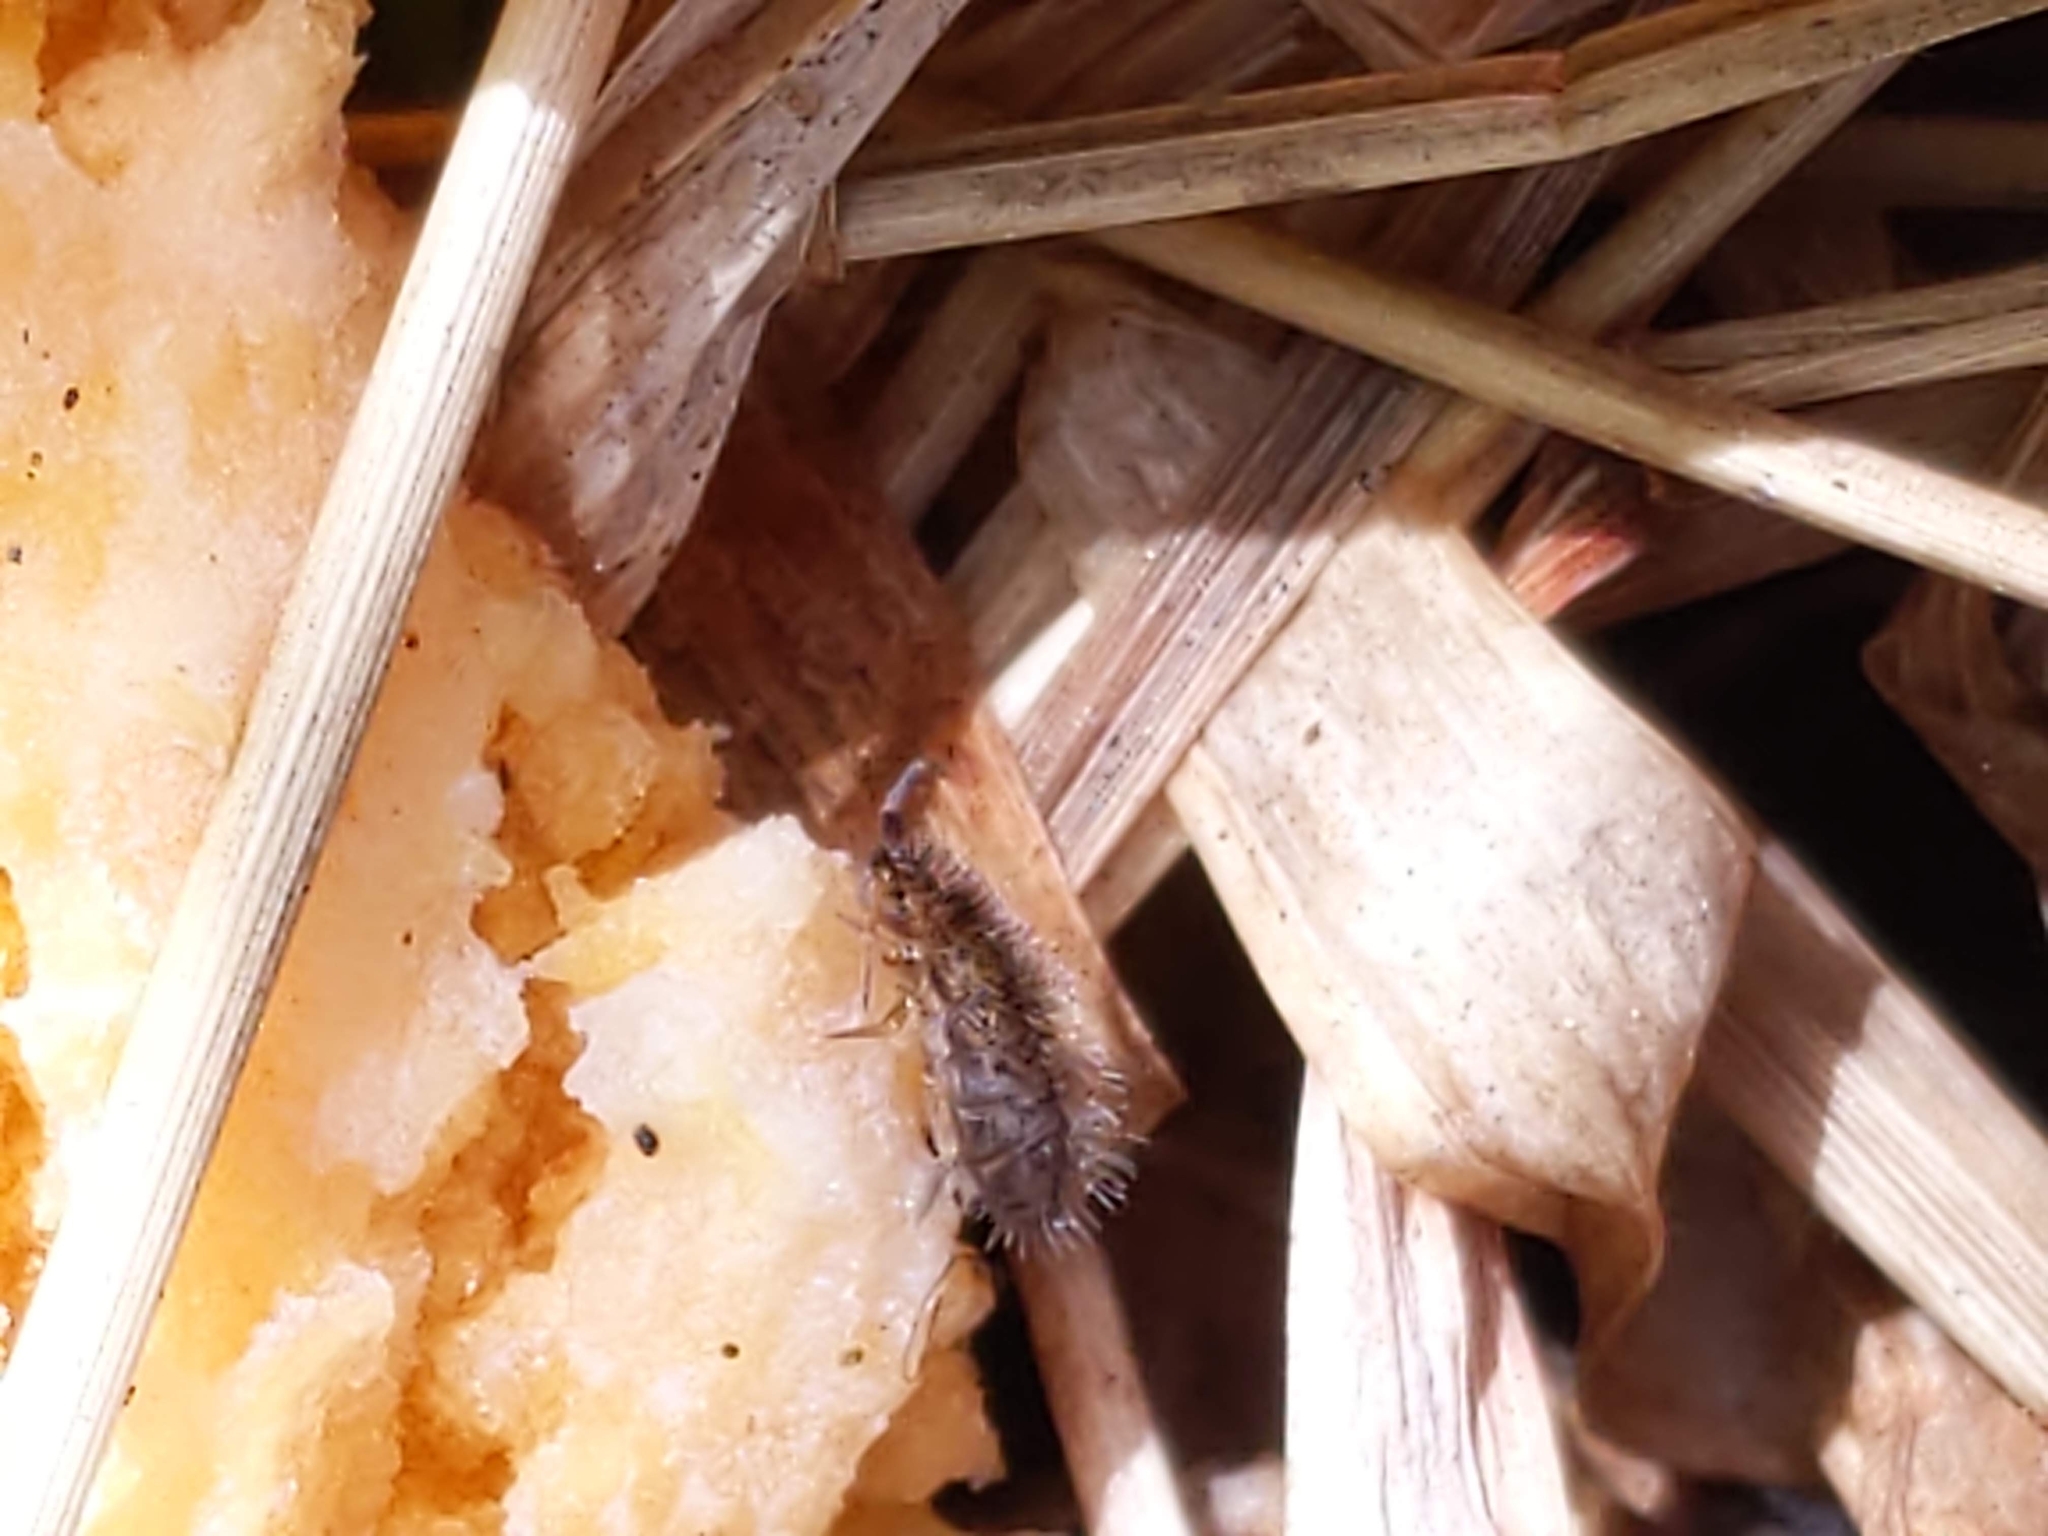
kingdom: Animalia
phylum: Arthropoda
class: Collembola
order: Entomobryomorpha
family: Orchesellidae
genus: Orchesella
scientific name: Orchesella villosa
